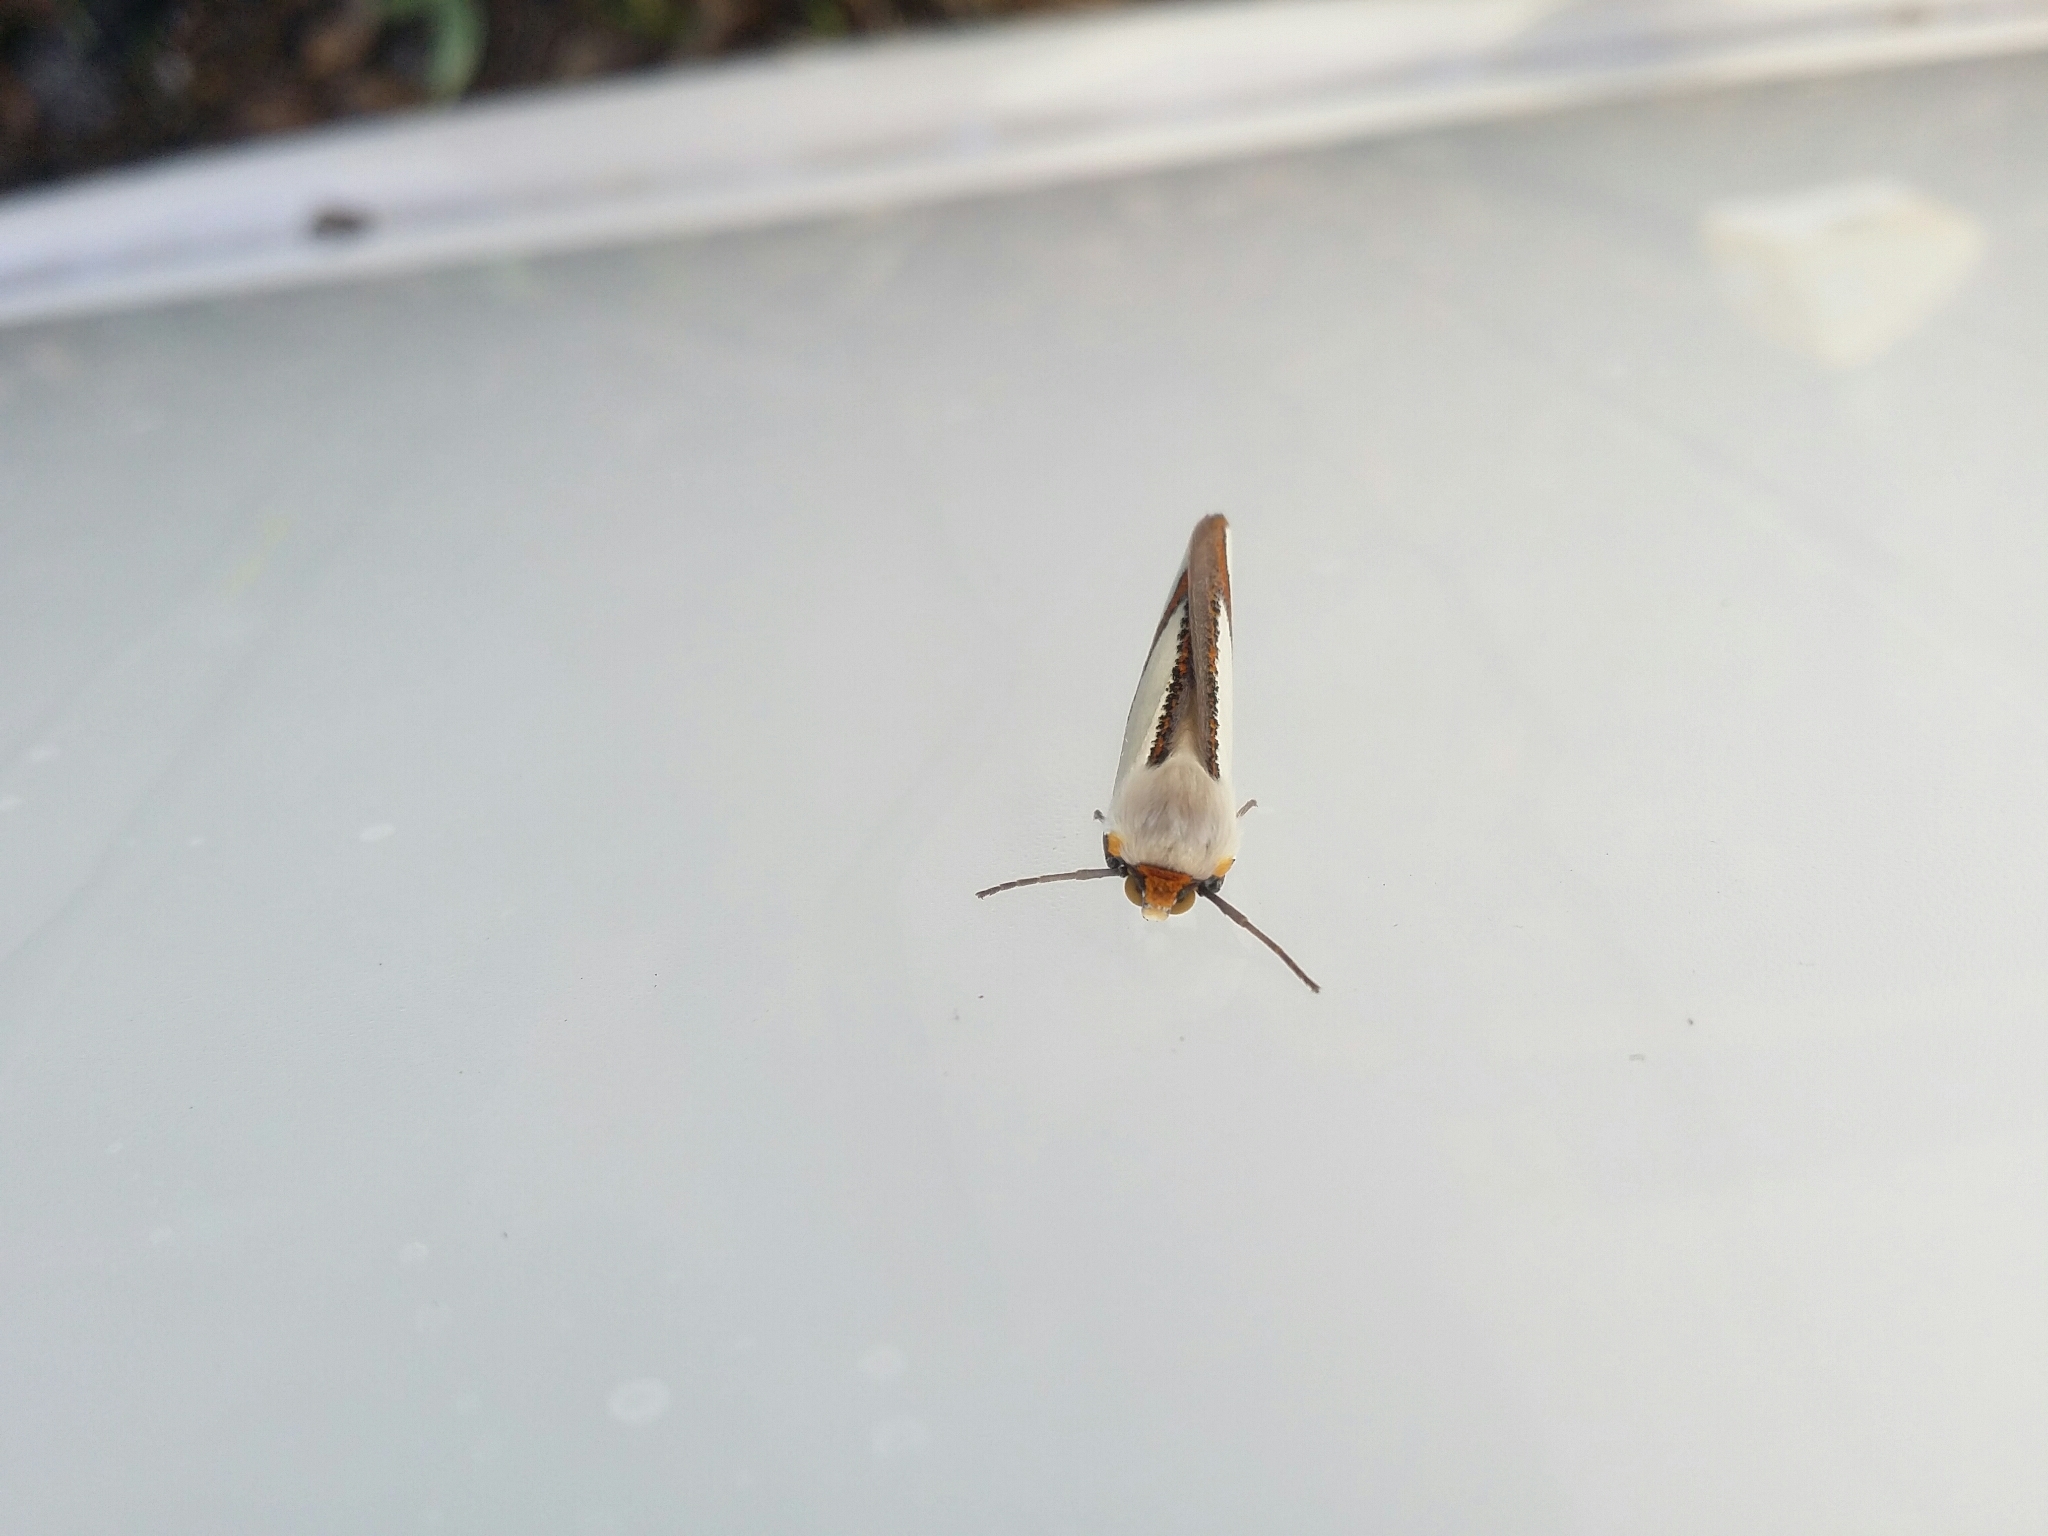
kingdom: Animalia
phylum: Arthropoda
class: Insecta
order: Lepidoptera
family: Geometridae
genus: Thalaina
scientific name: Thalaina angulosa
